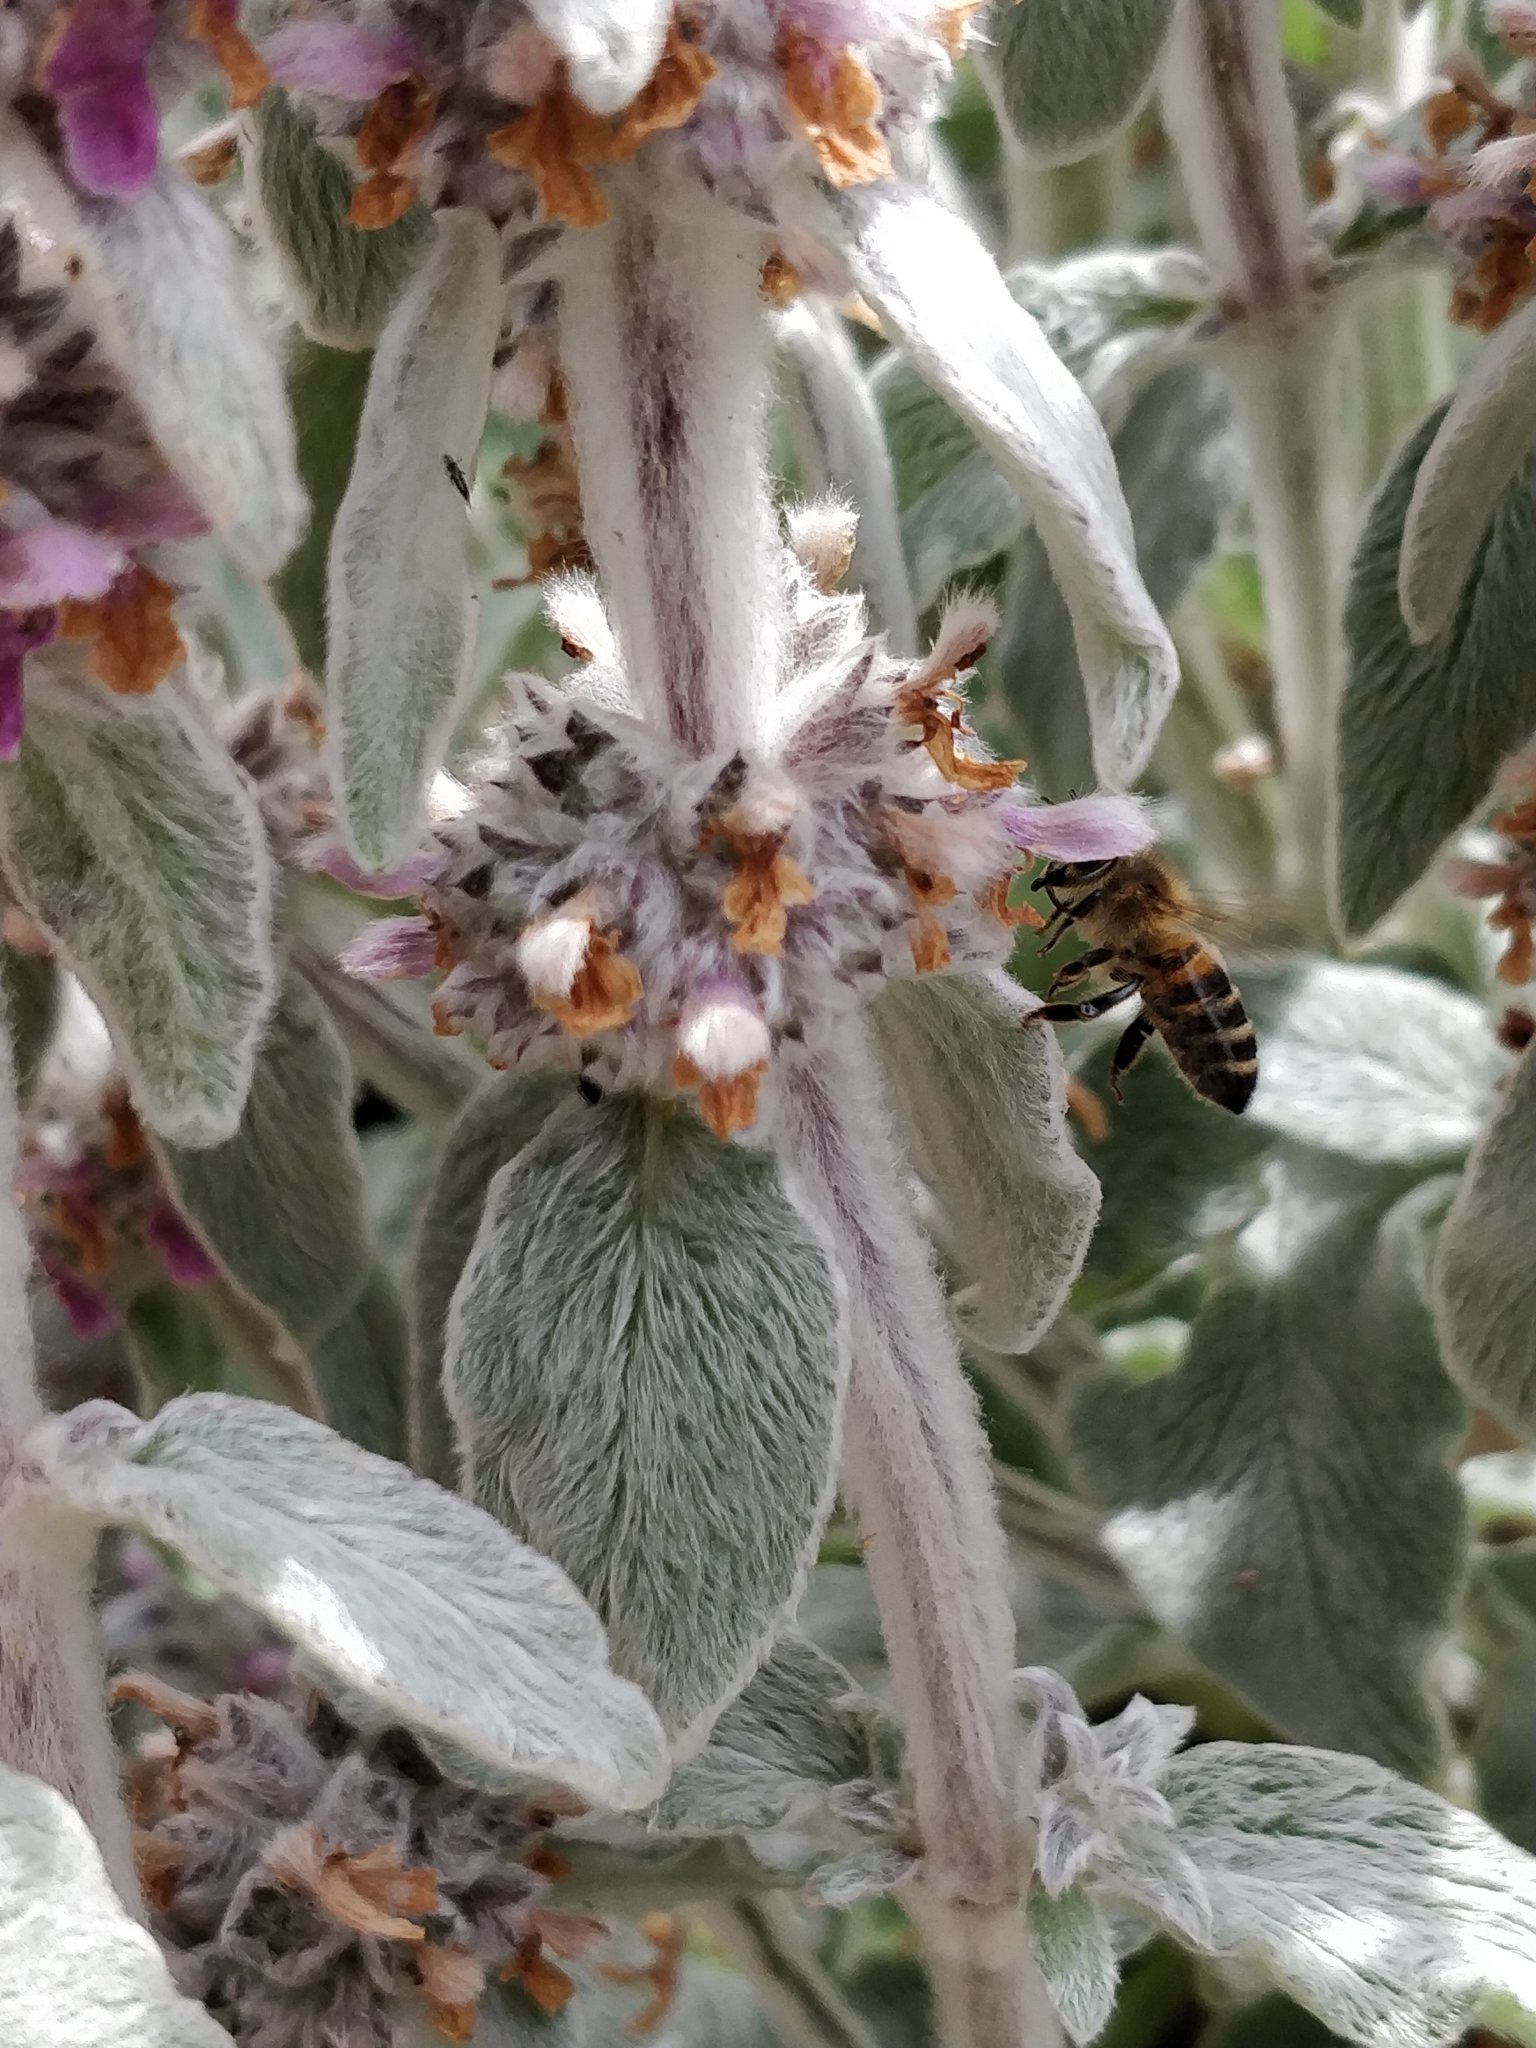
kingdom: Animalia
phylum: Arthropoda
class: Insecta
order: Hymenoptera
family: Apidae
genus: Apis
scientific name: Apis mellifera
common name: Honey bee
